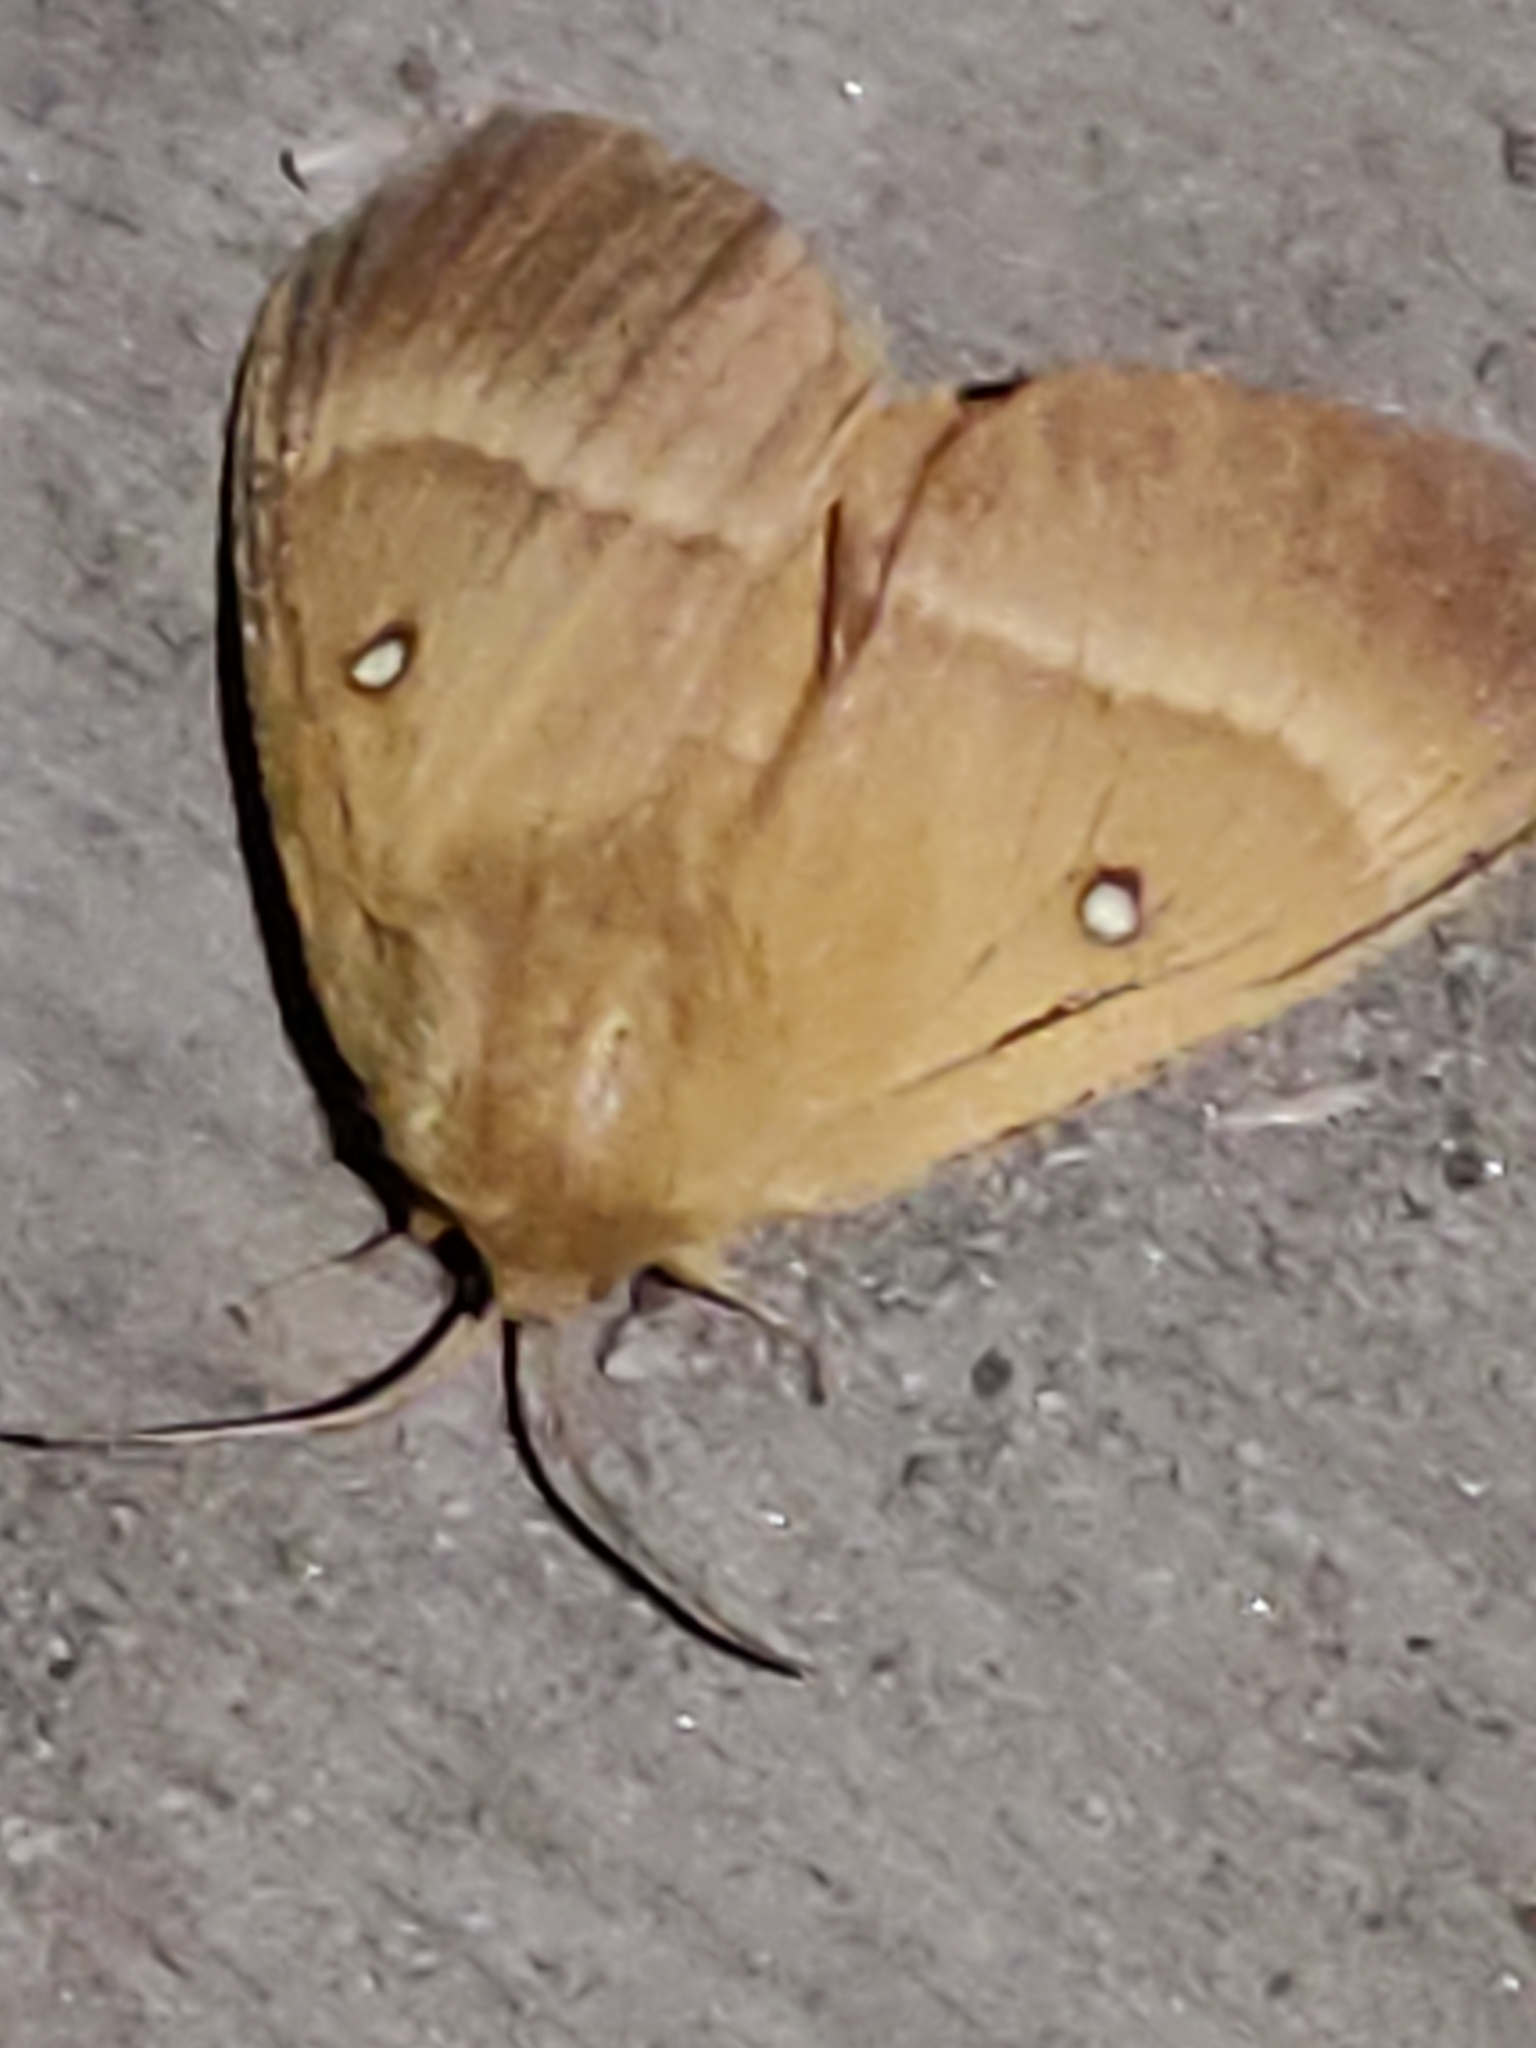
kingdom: Animalia
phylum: Arthropoda
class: Insecta
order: Lepidoptera
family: Lasiocampidae
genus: Lasiocampa
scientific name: Lasiocampa quercus
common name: Oak eggar
